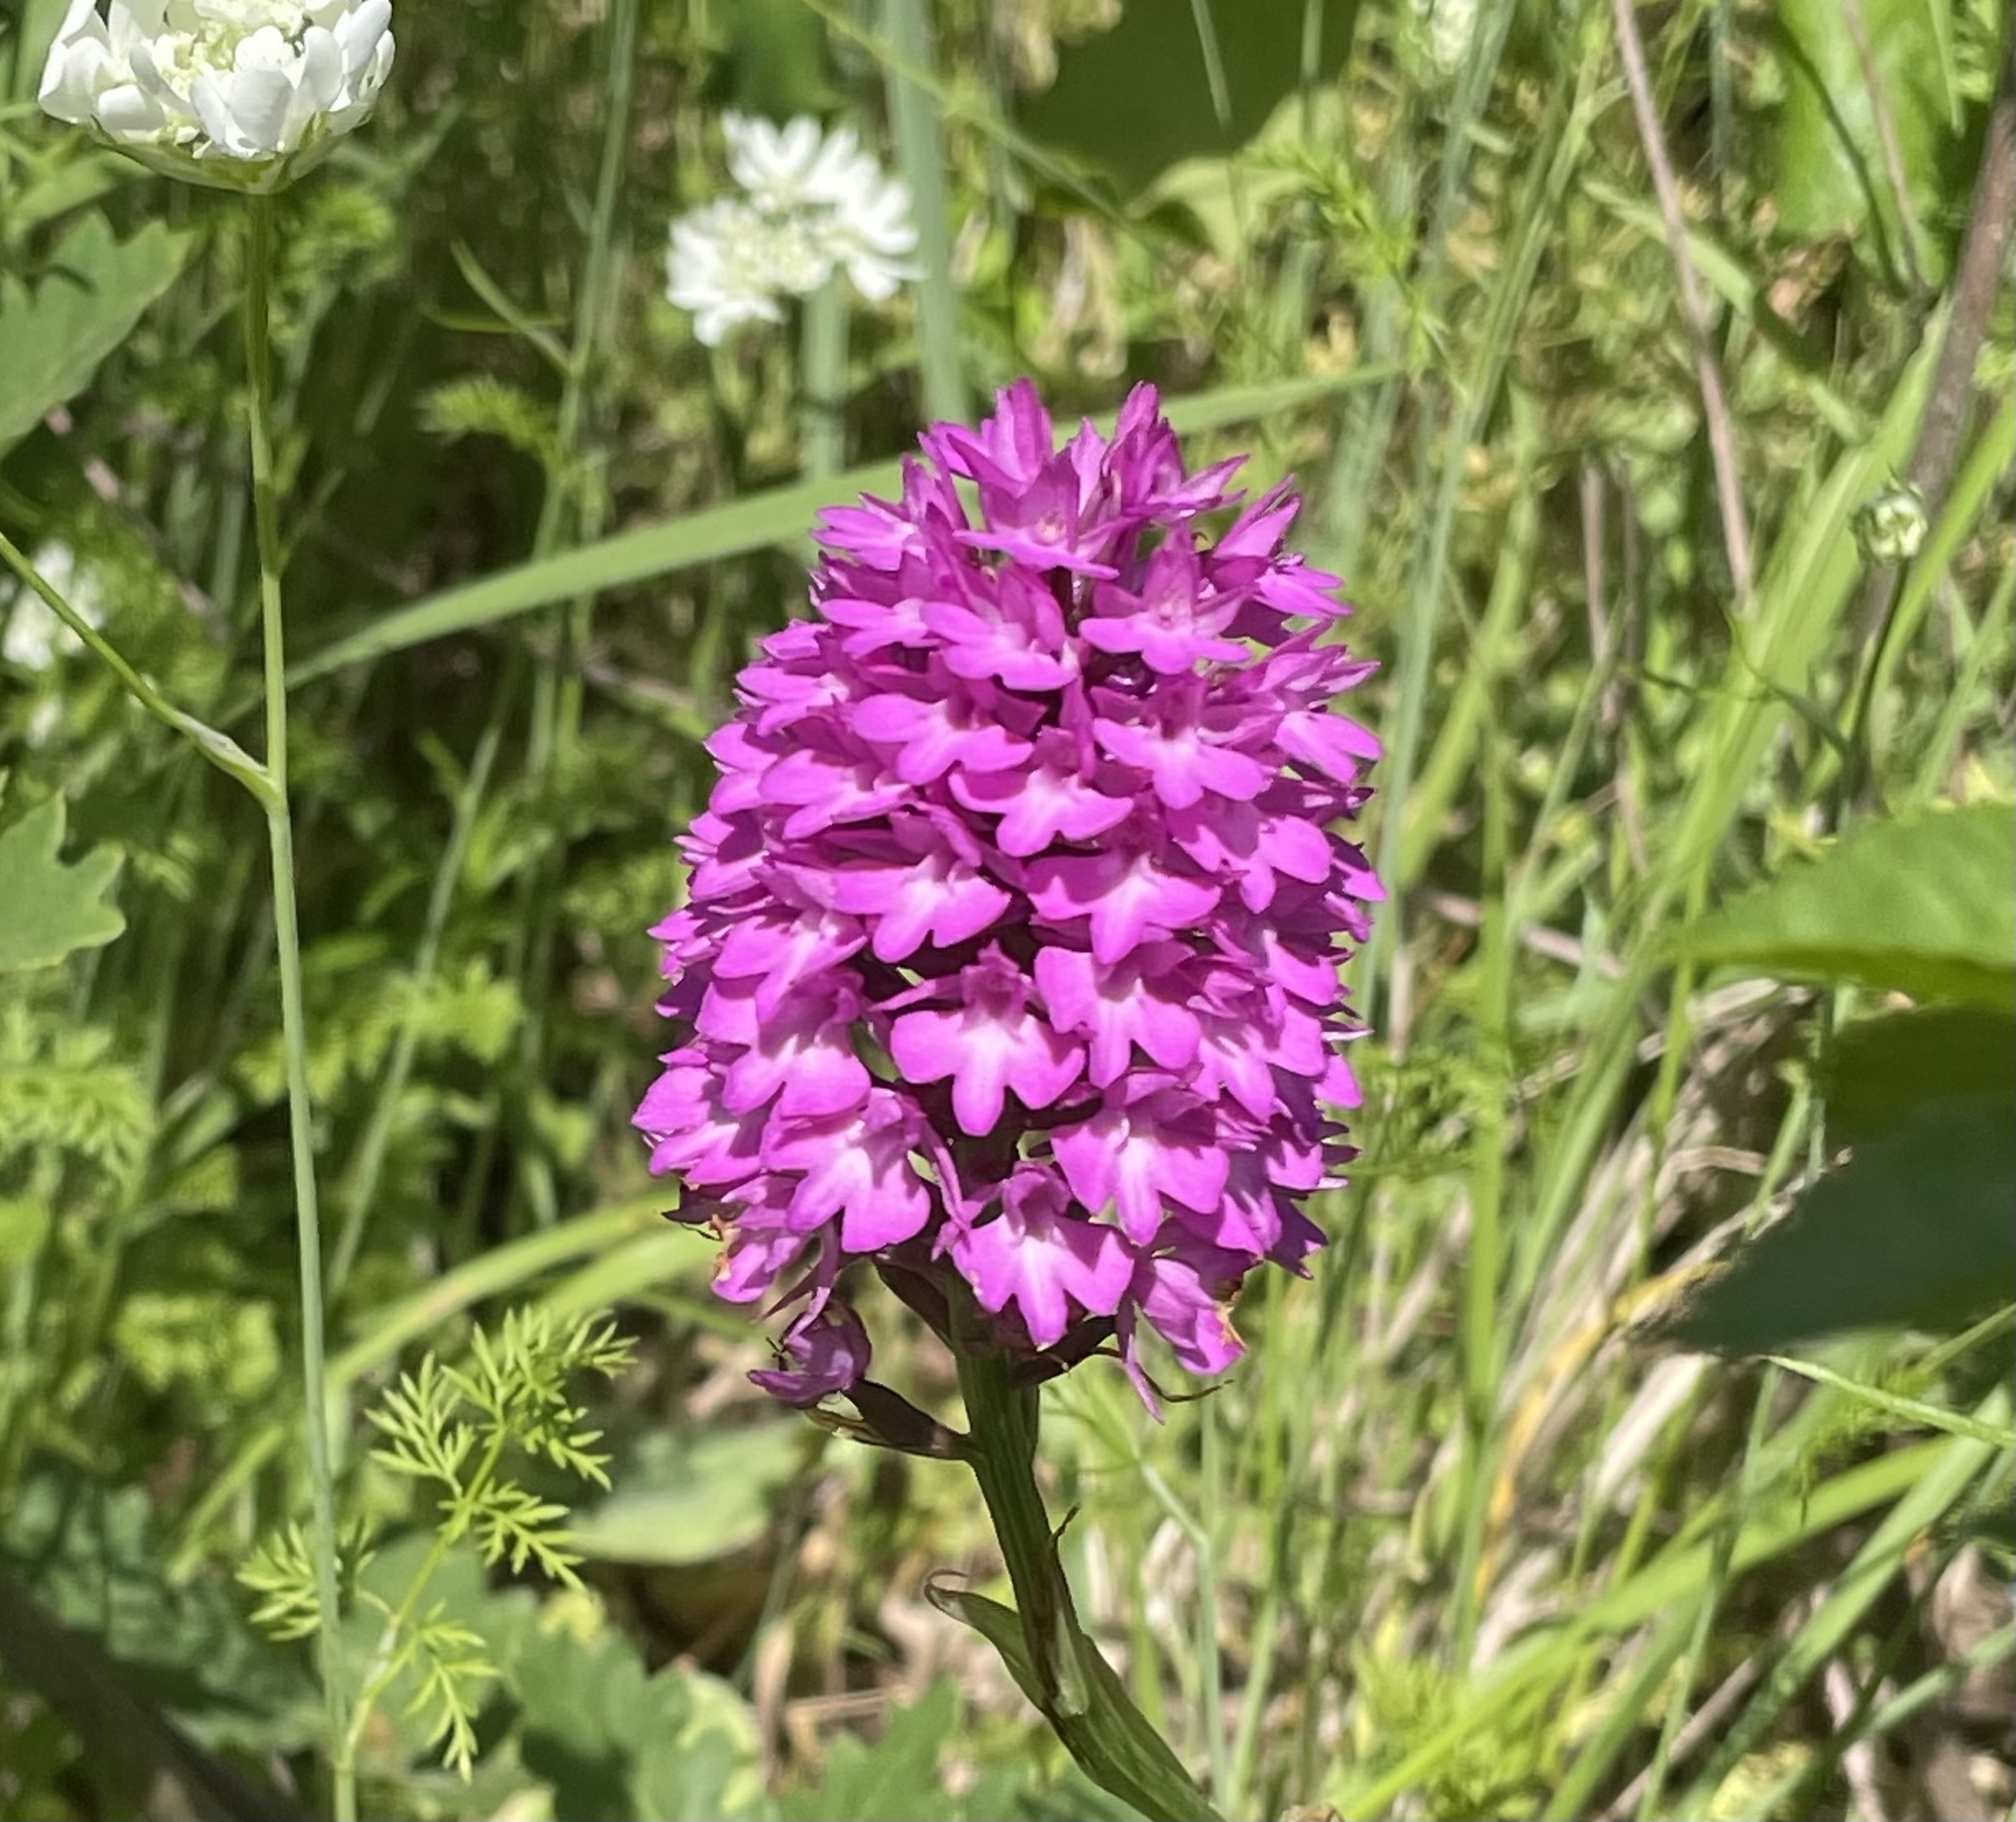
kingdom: Plantae
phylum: Tracheophyta
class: Liliopsida
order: Asparagales
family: Orchidaceae
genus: Anacamptis
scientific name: Anacamptis pyramidalis
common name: Pyramidal orchid
